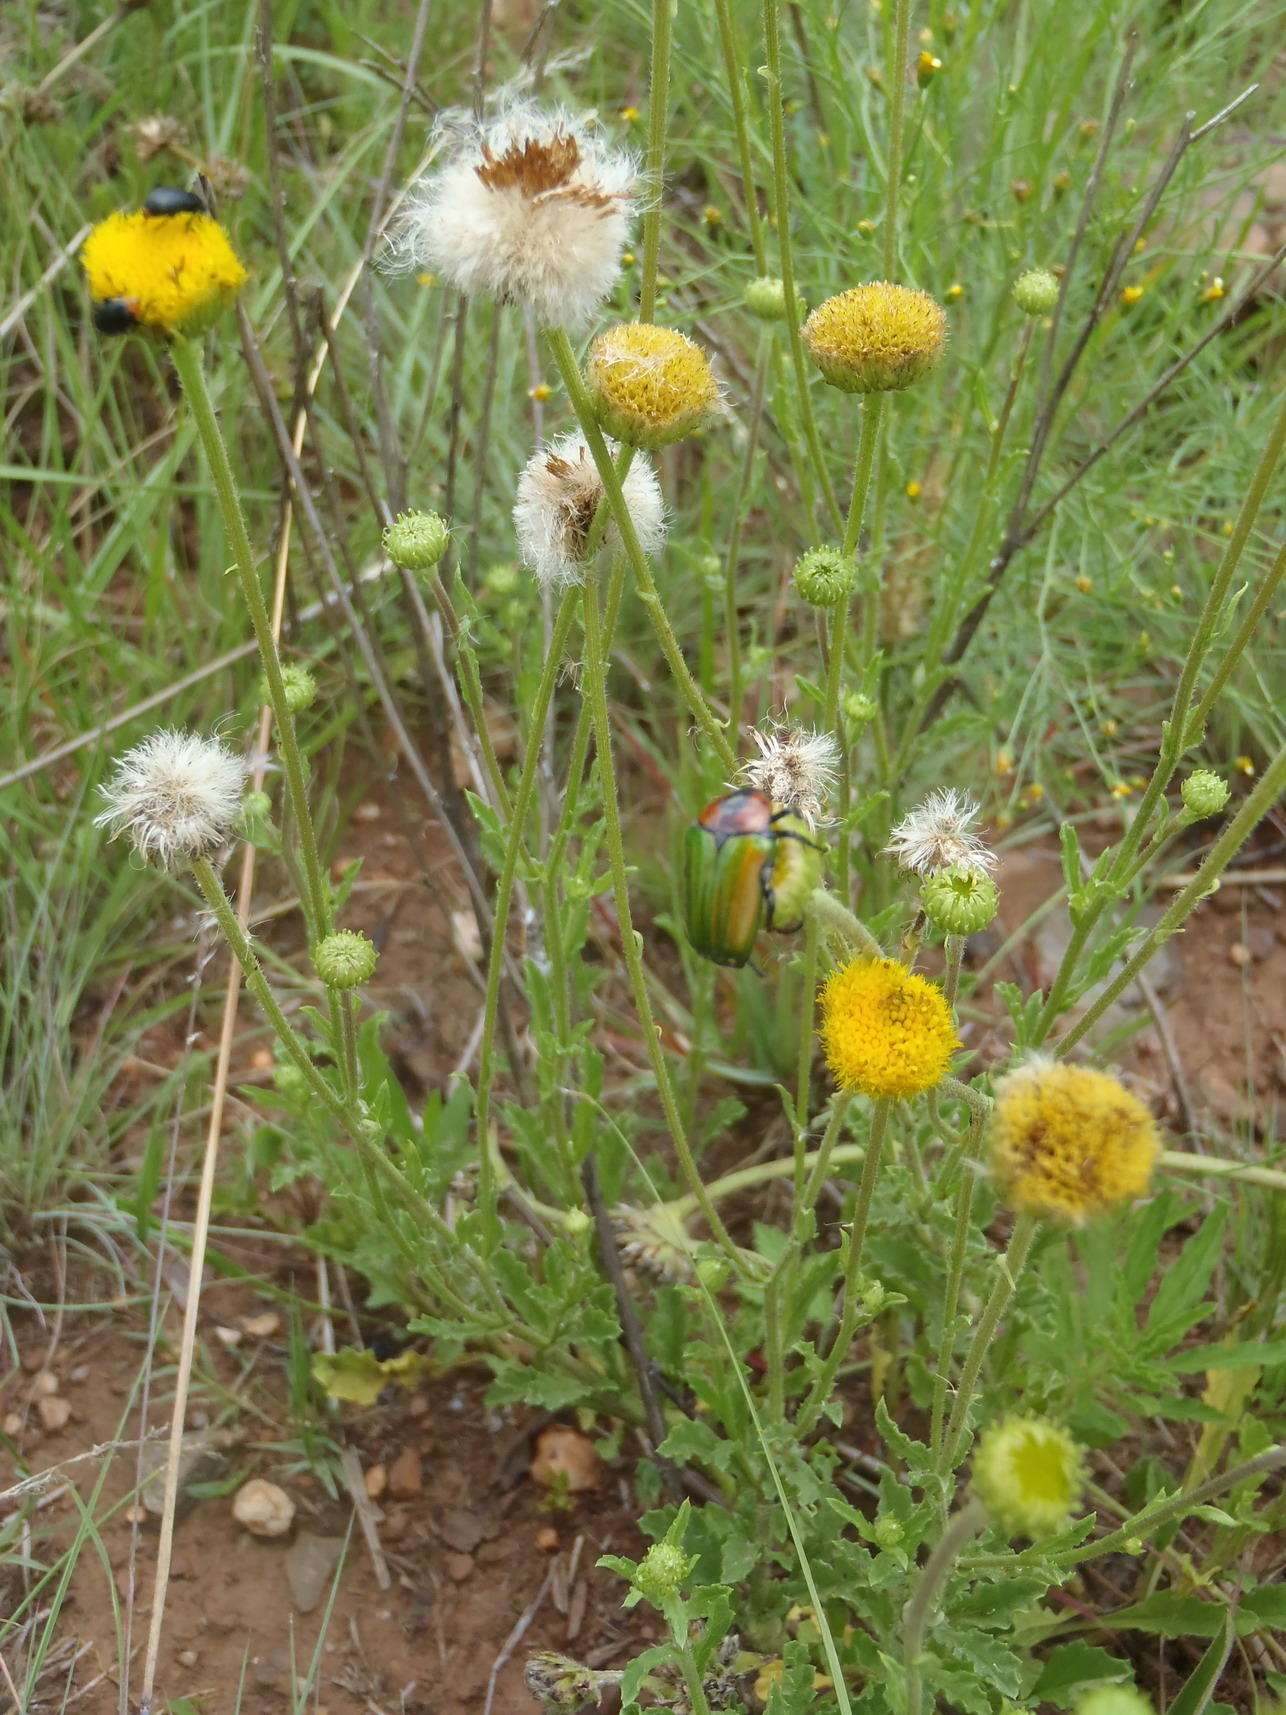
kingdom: Plantae
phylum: Tracheophyta
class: Magnoliopsida
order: Asterales
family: Asteraceae
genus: Nidorella
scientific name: Nidorella podocephala
